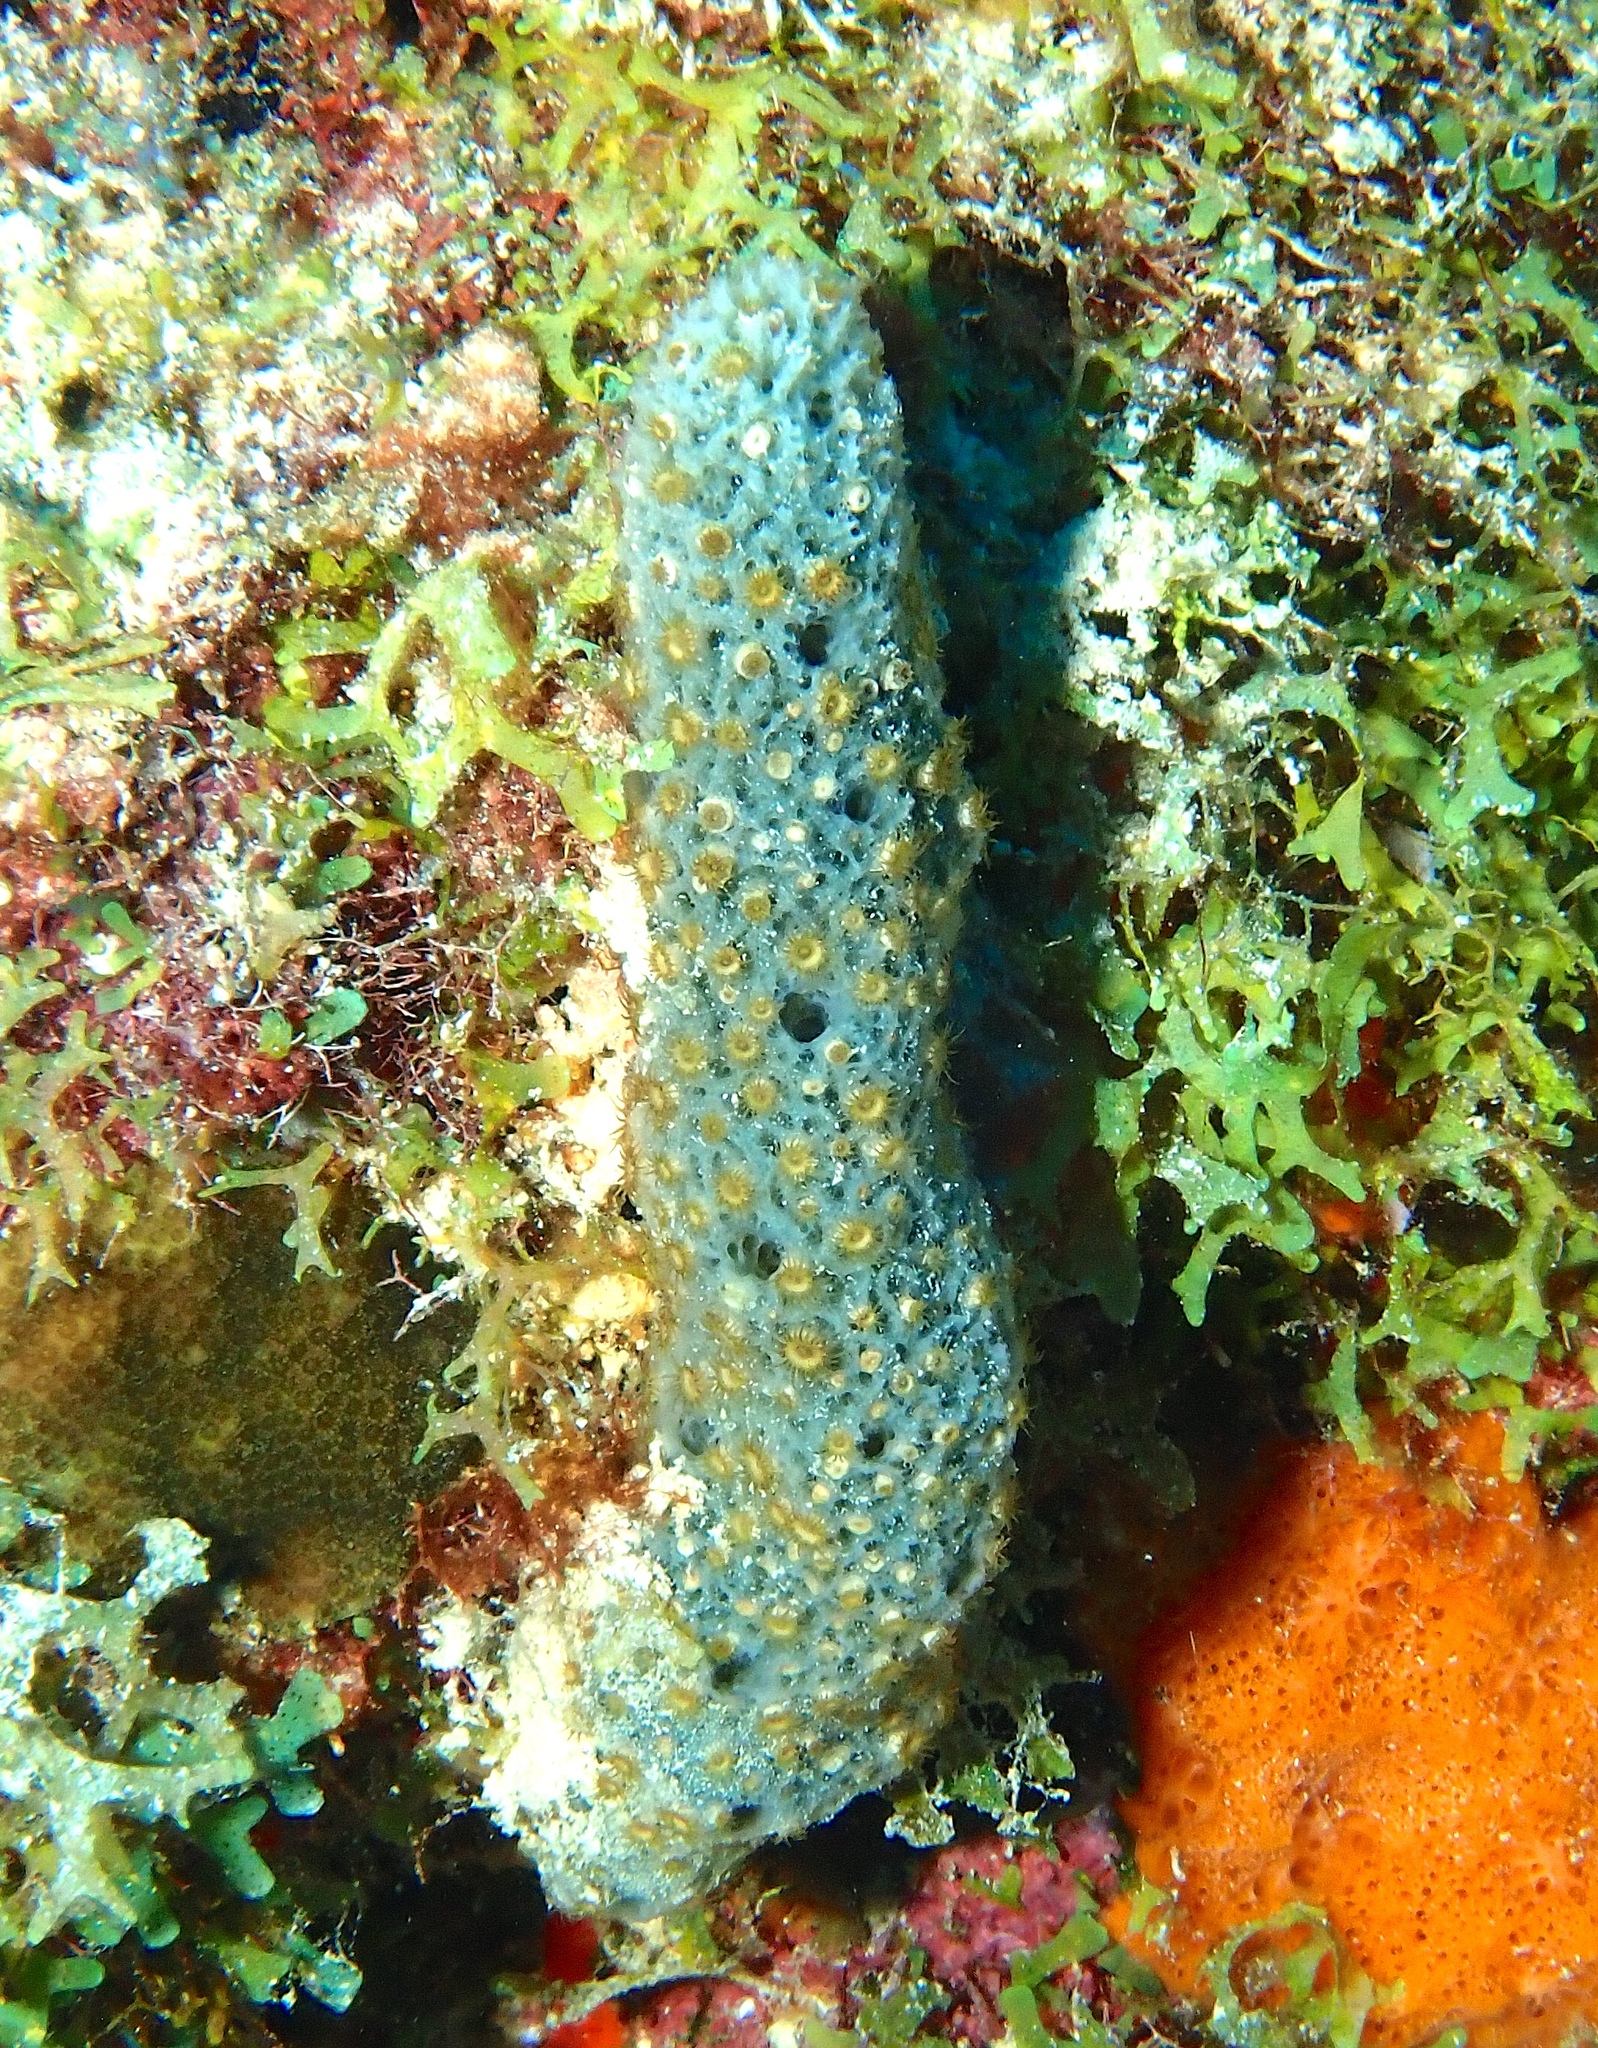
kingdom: Animalia
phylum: Cnidaria
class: Anthozoa
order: Zoantharia
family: Parazoanthidae
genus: Umimayanthus
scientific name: Umimayanthus parasiticus
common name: Sponge zoanthid
